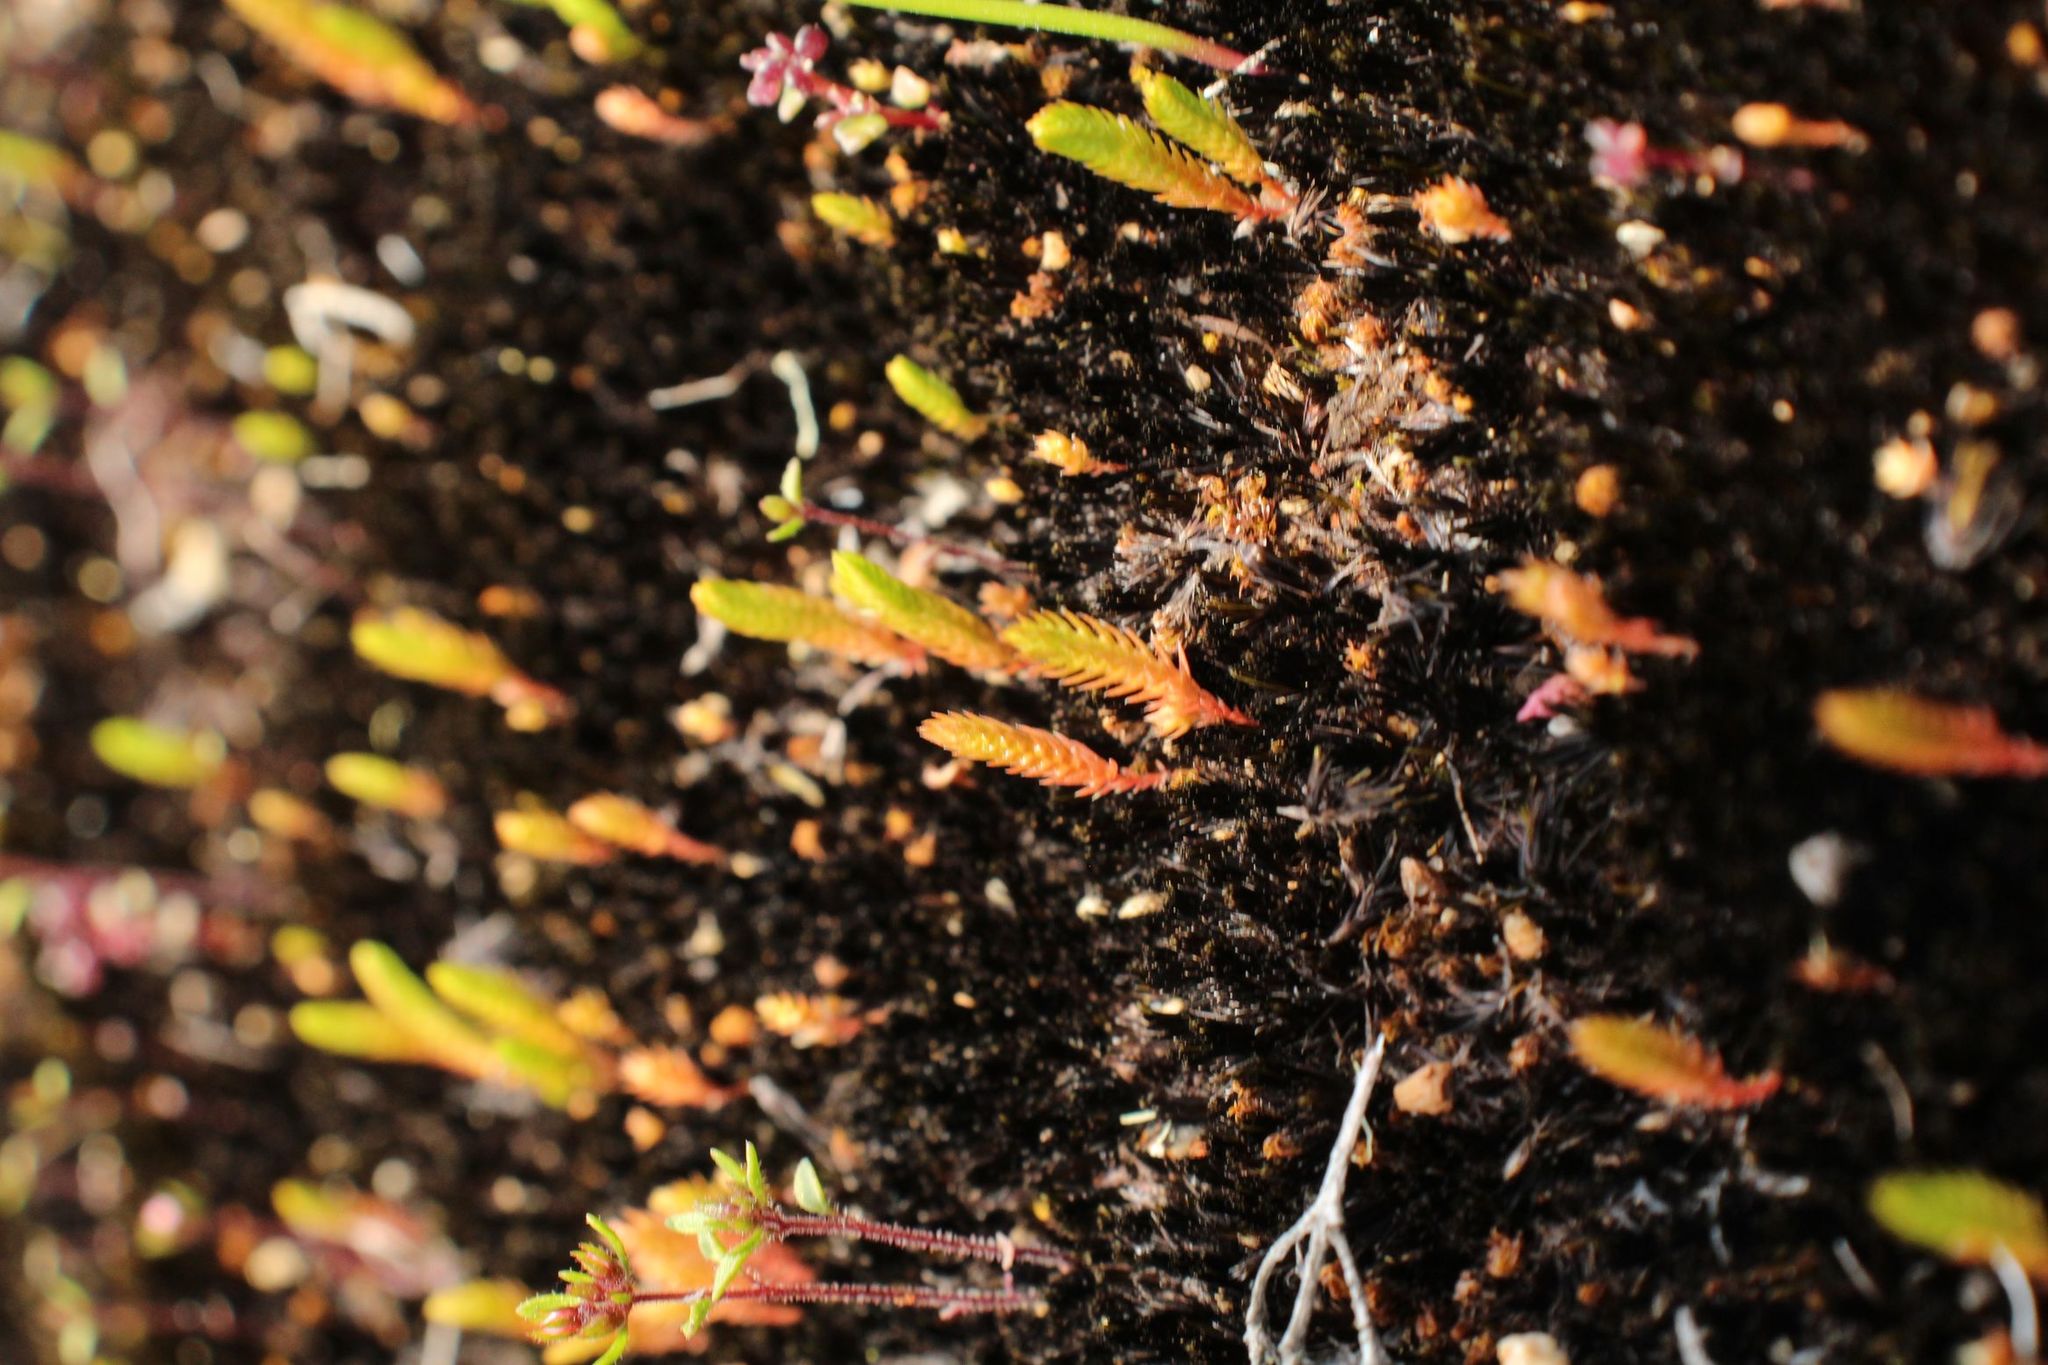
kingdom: Plantae
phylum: Tracheophyta
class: Lycopodiopsida
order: Selaginellales
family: Selaginellaceae
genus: Selaginella
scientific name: Selaginella gracillima
